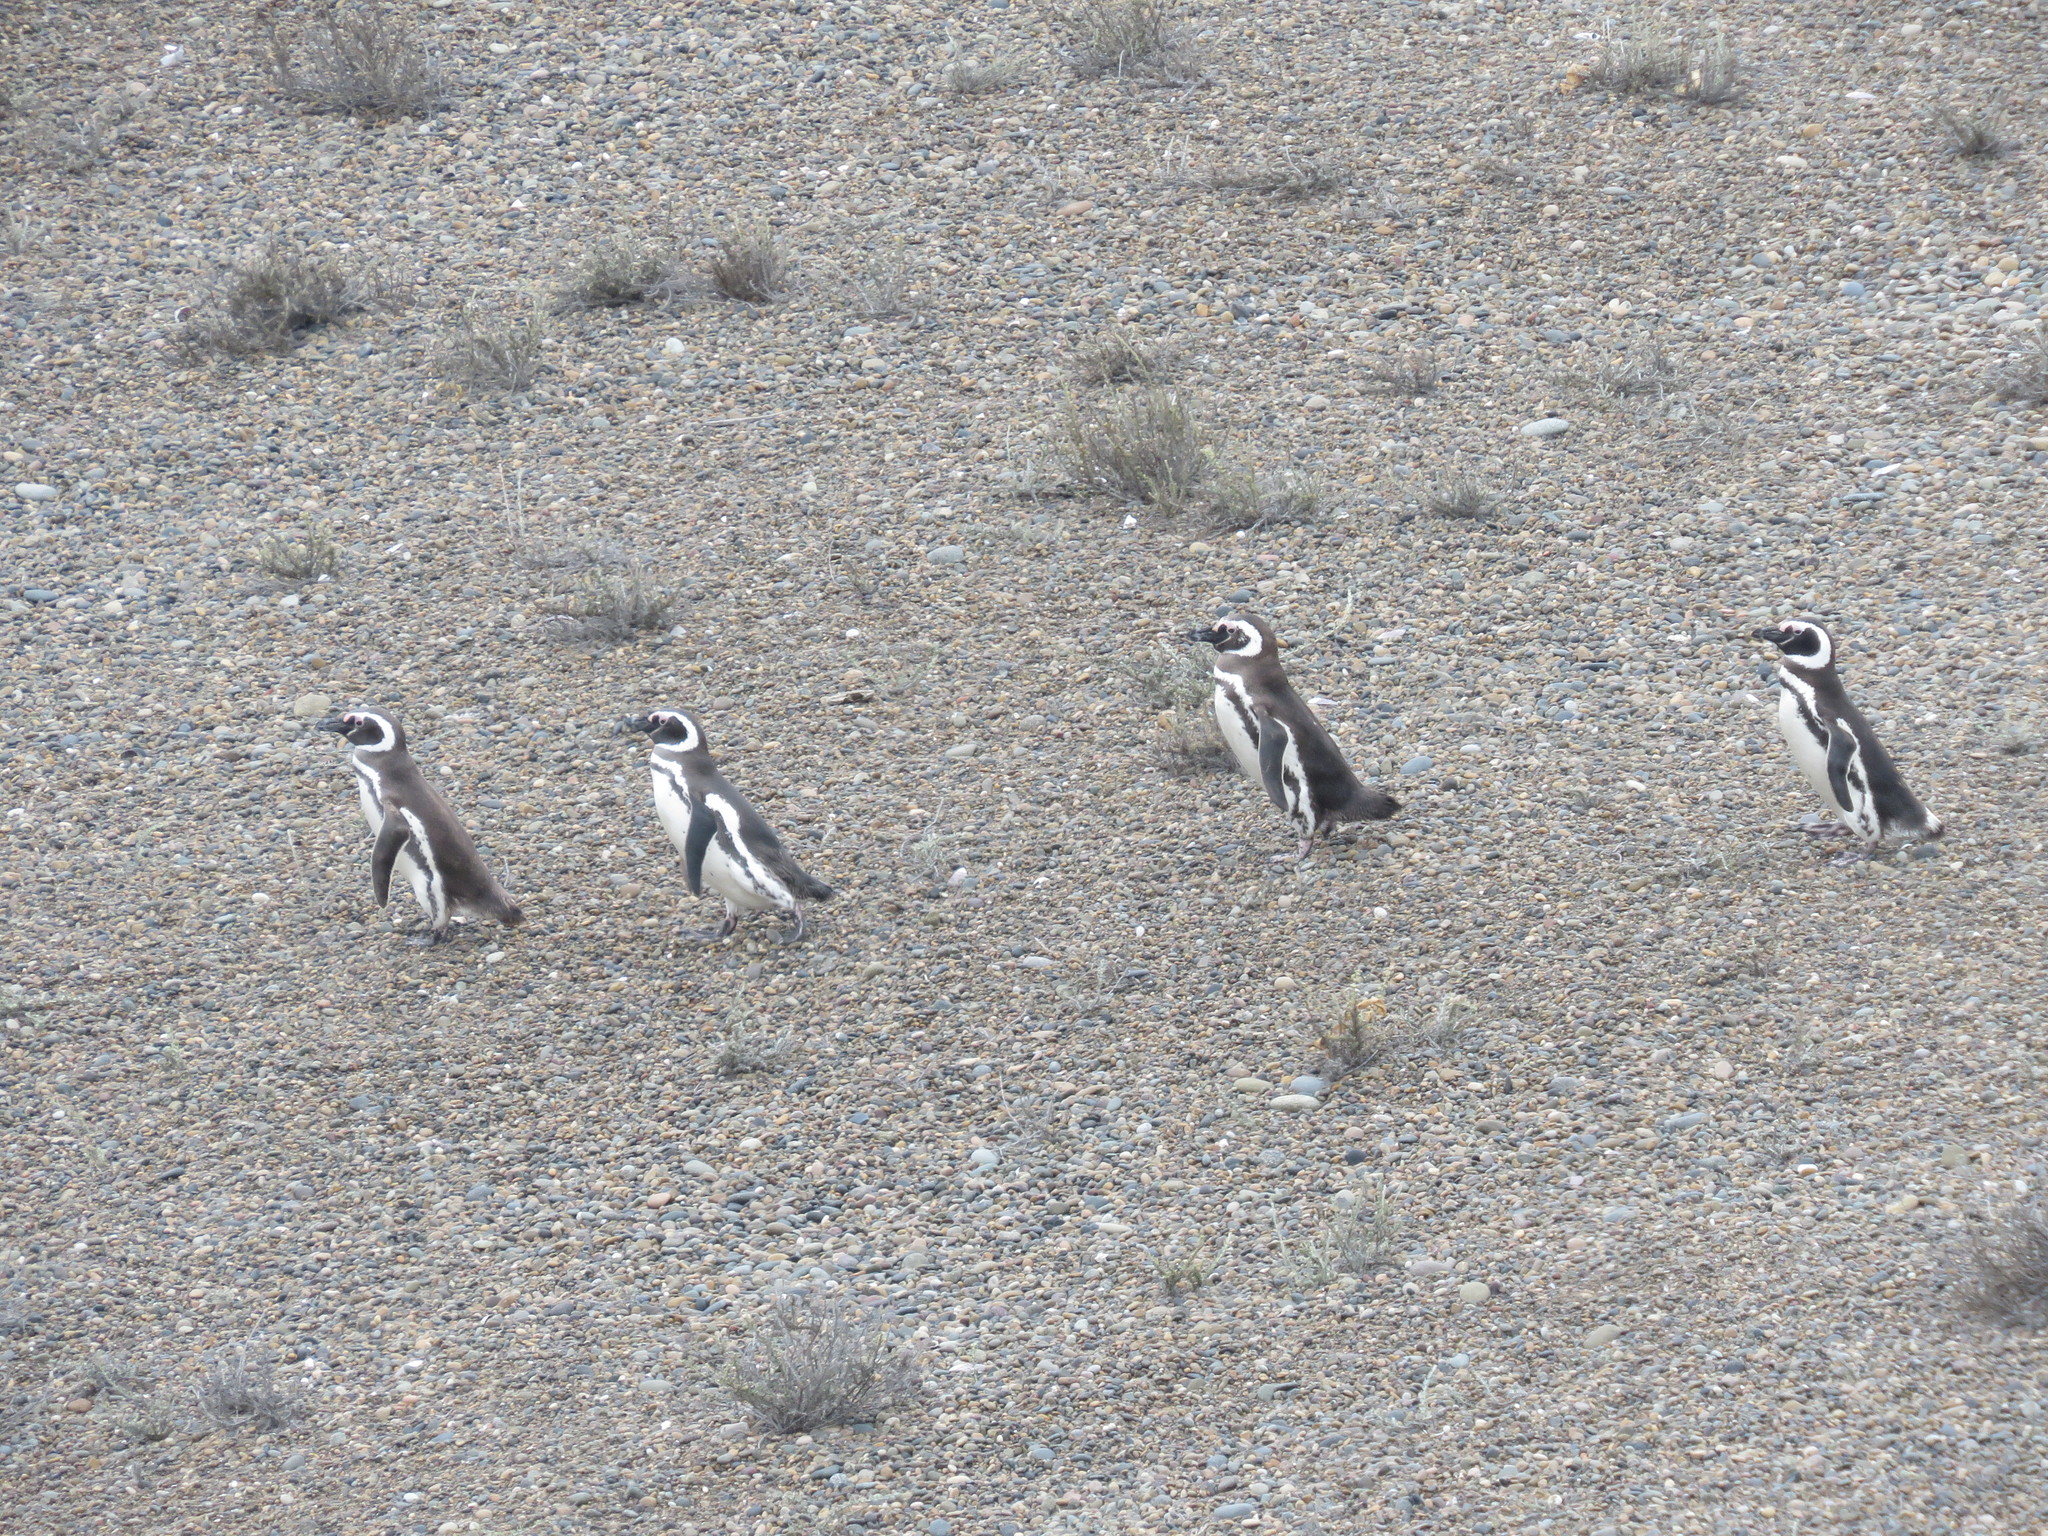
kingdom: Animalia
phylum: Chordata
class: Aves
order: Sphenisciformes
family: Spheniscidae
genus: Spheniscus
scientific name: Spheniscus magellanicus
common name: Magellanic penguin
